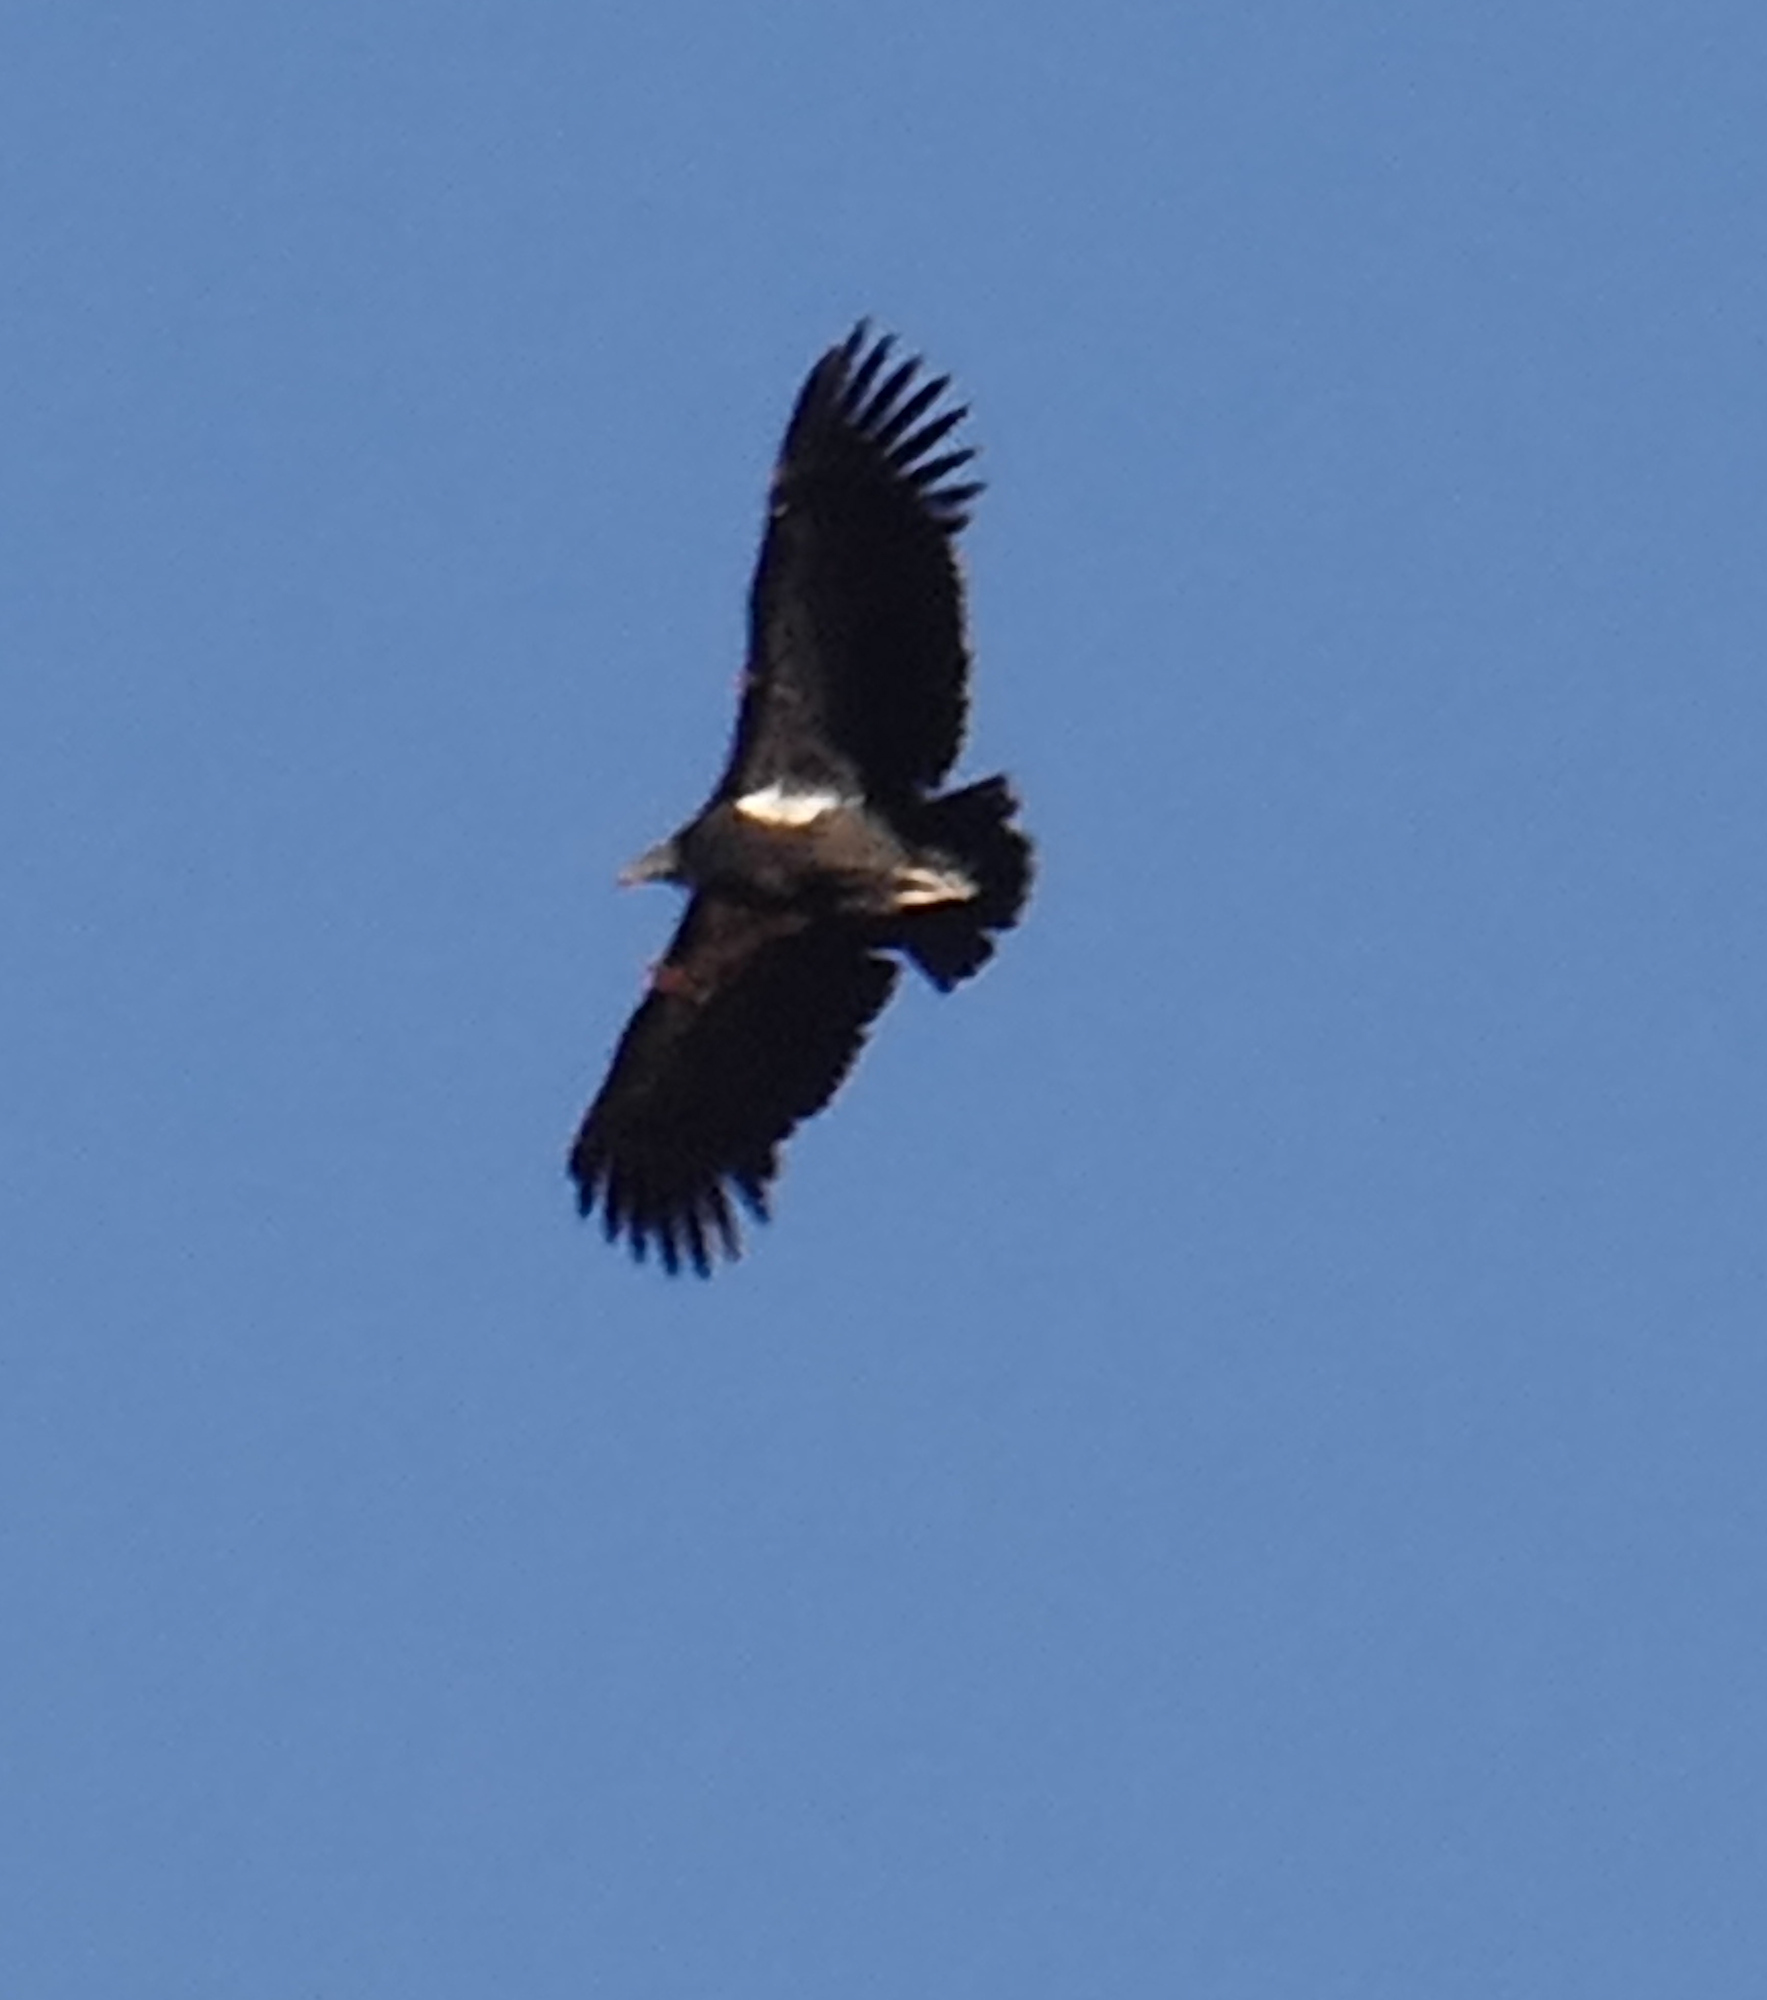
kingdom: Animalia
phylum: Chordata
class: Aves
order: Accipitriformes
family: Cathartidae
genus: Gymnogyps
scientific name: Gymnogyps californianus
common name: California condor
